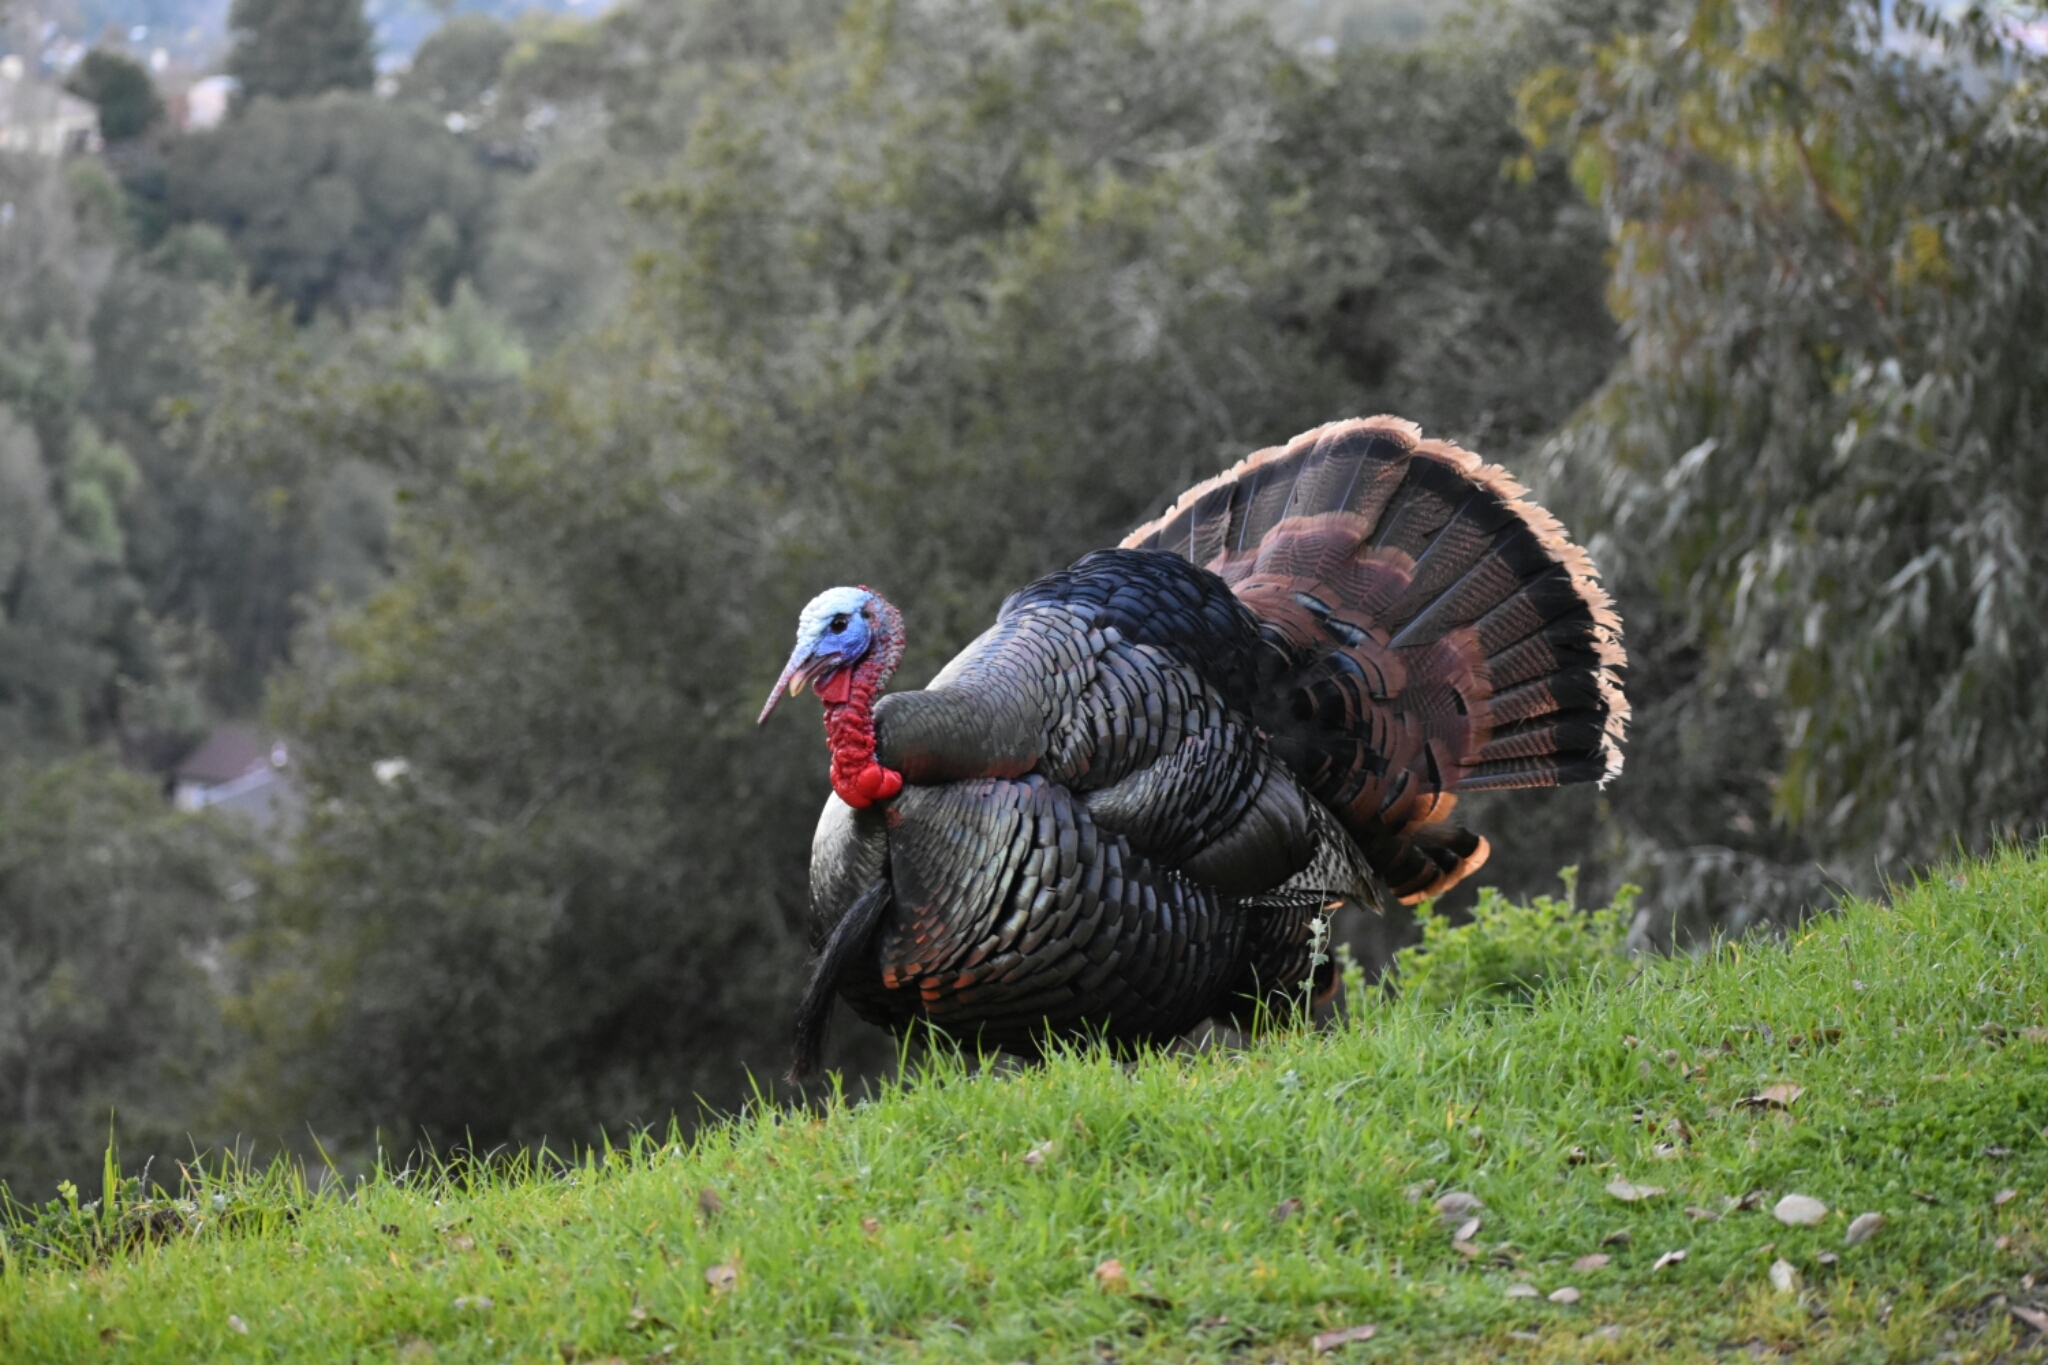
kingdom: Animalia
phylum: Chordata
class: Aves
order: Galliformes
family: Phasianidae
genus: Meleagris
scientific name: Meleagris gallopavo
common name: Wild turkey
